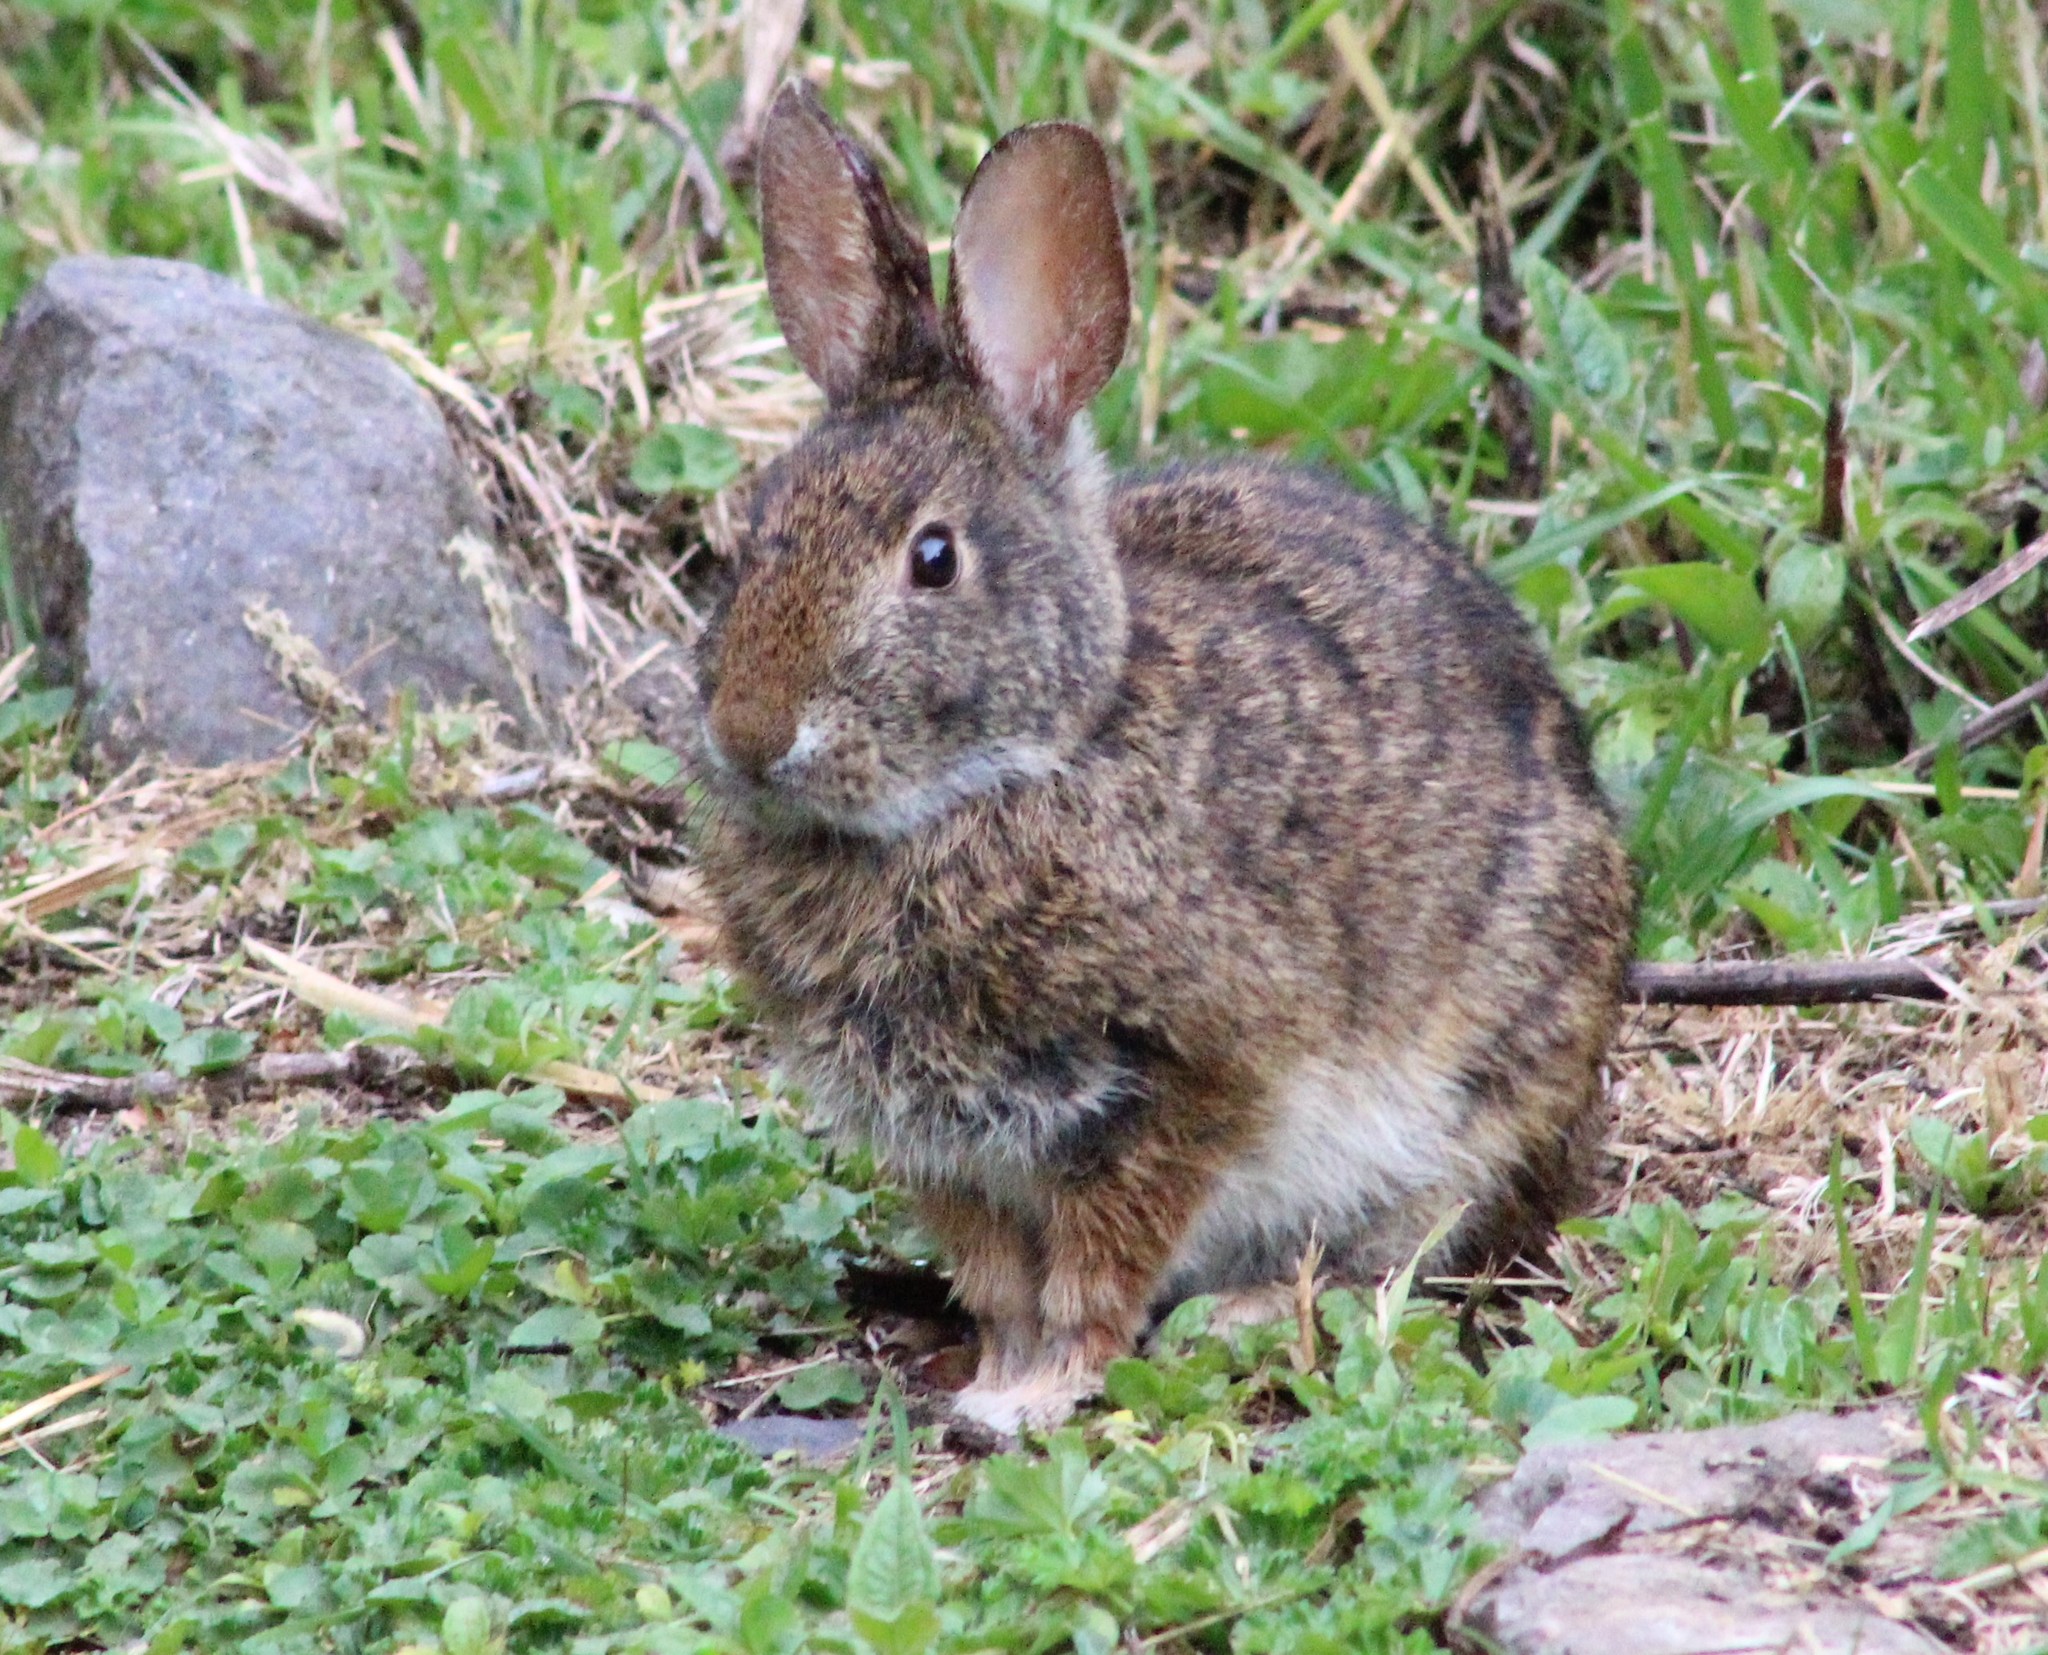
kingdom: Animalia
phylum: Chordata
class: Mammalia
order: Lagomorpha
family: Leporidae
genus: Sylvilagus
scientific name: Sylvilagus andinus
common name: Andean cottontail
